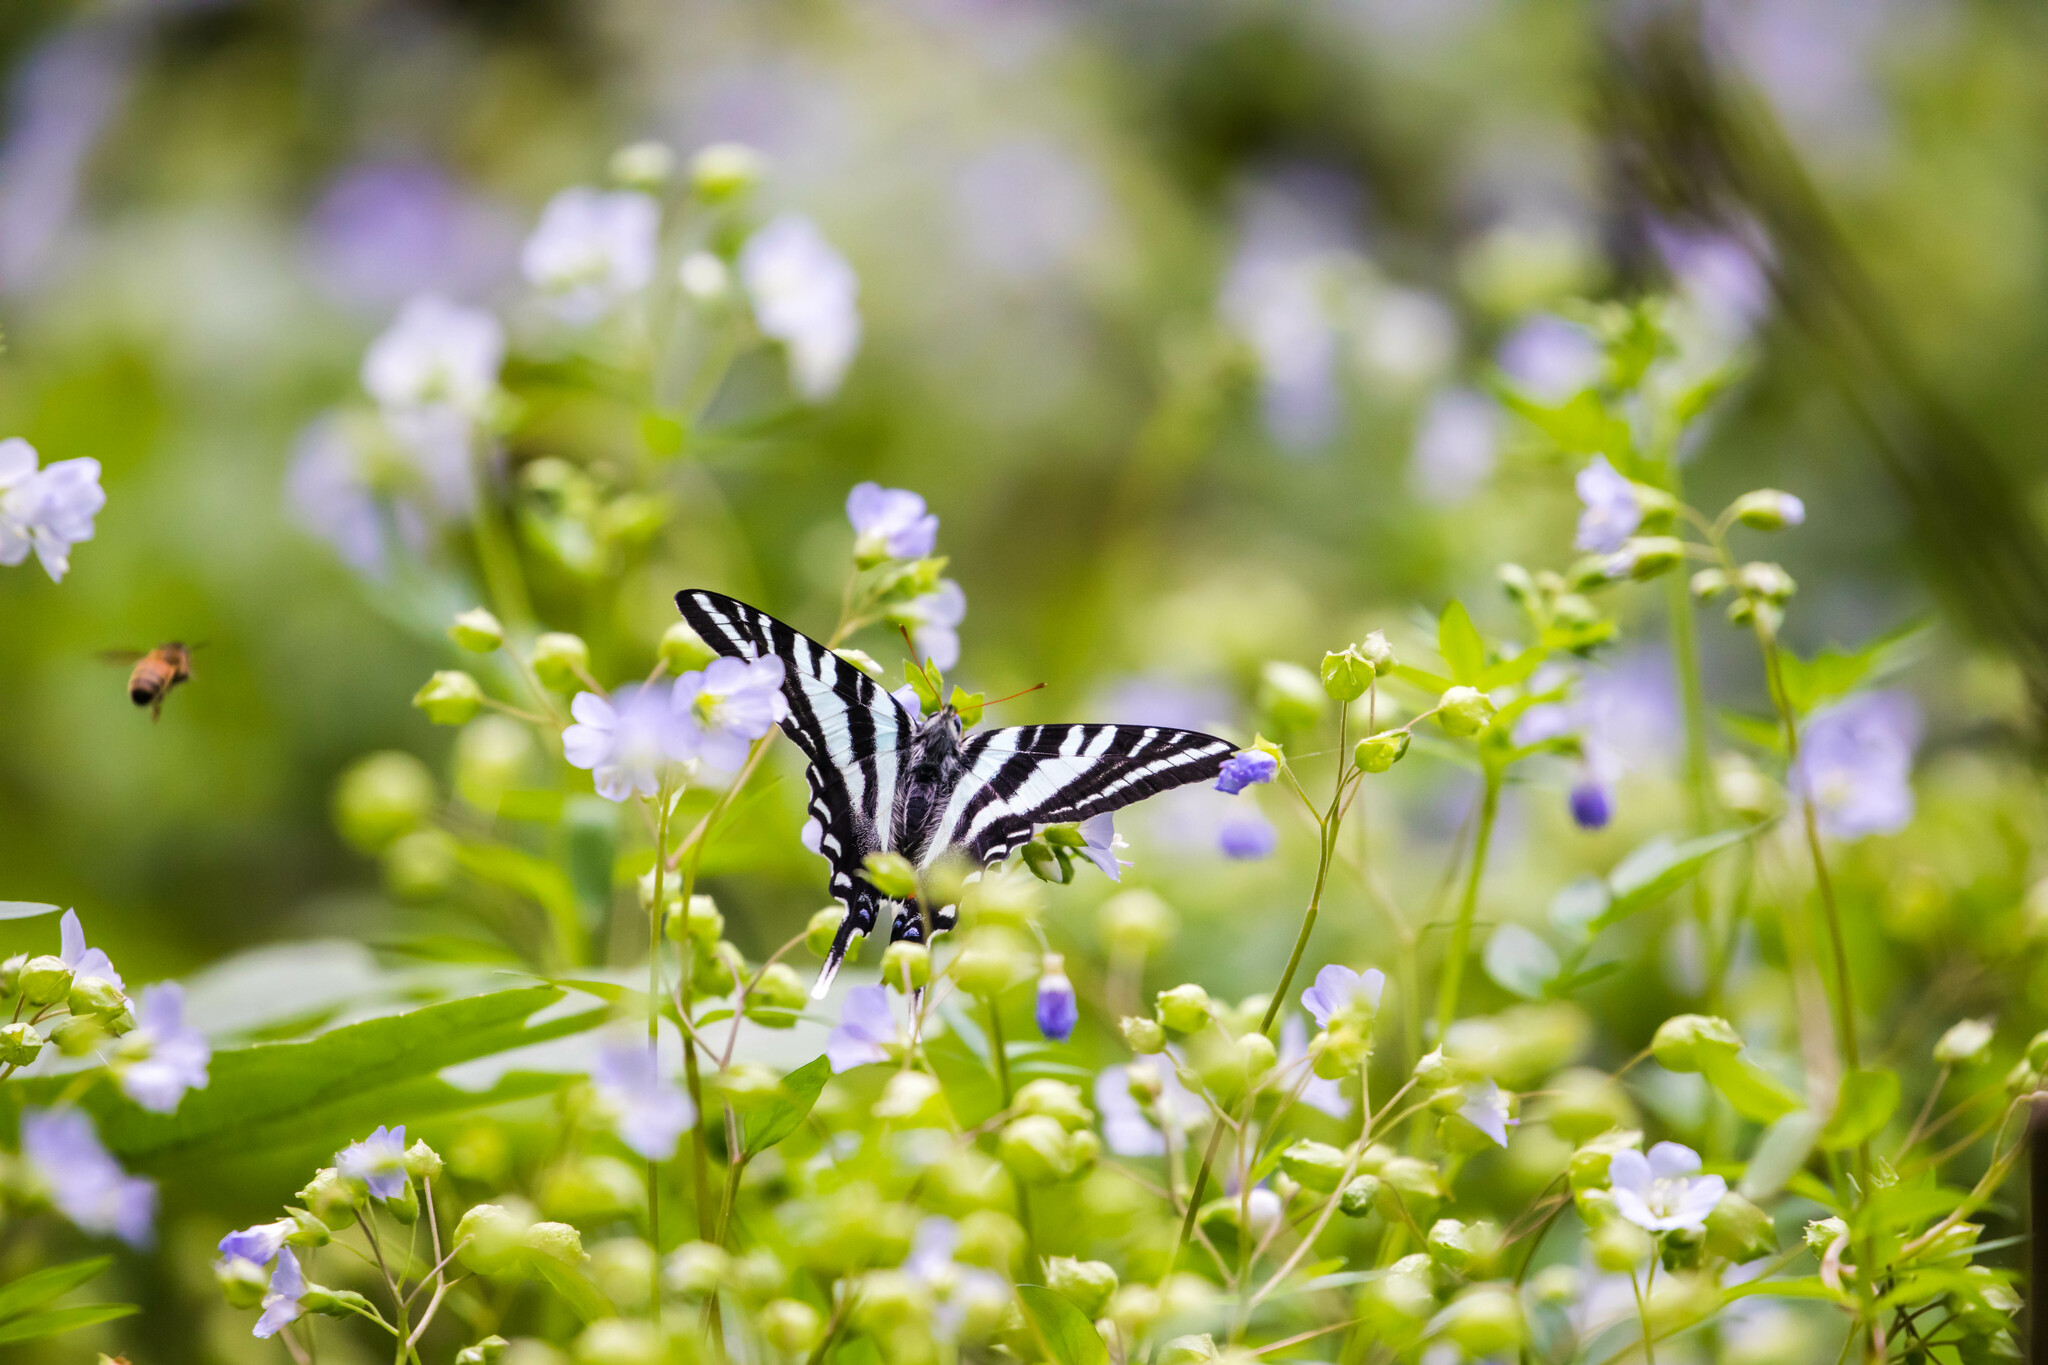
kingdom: Animalia
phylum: Arthropoda
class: Insecta
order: Lepidoptera
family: Papilionidae
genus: Protographium
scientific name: Protographium marcellus
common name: Zebra swallowtail
